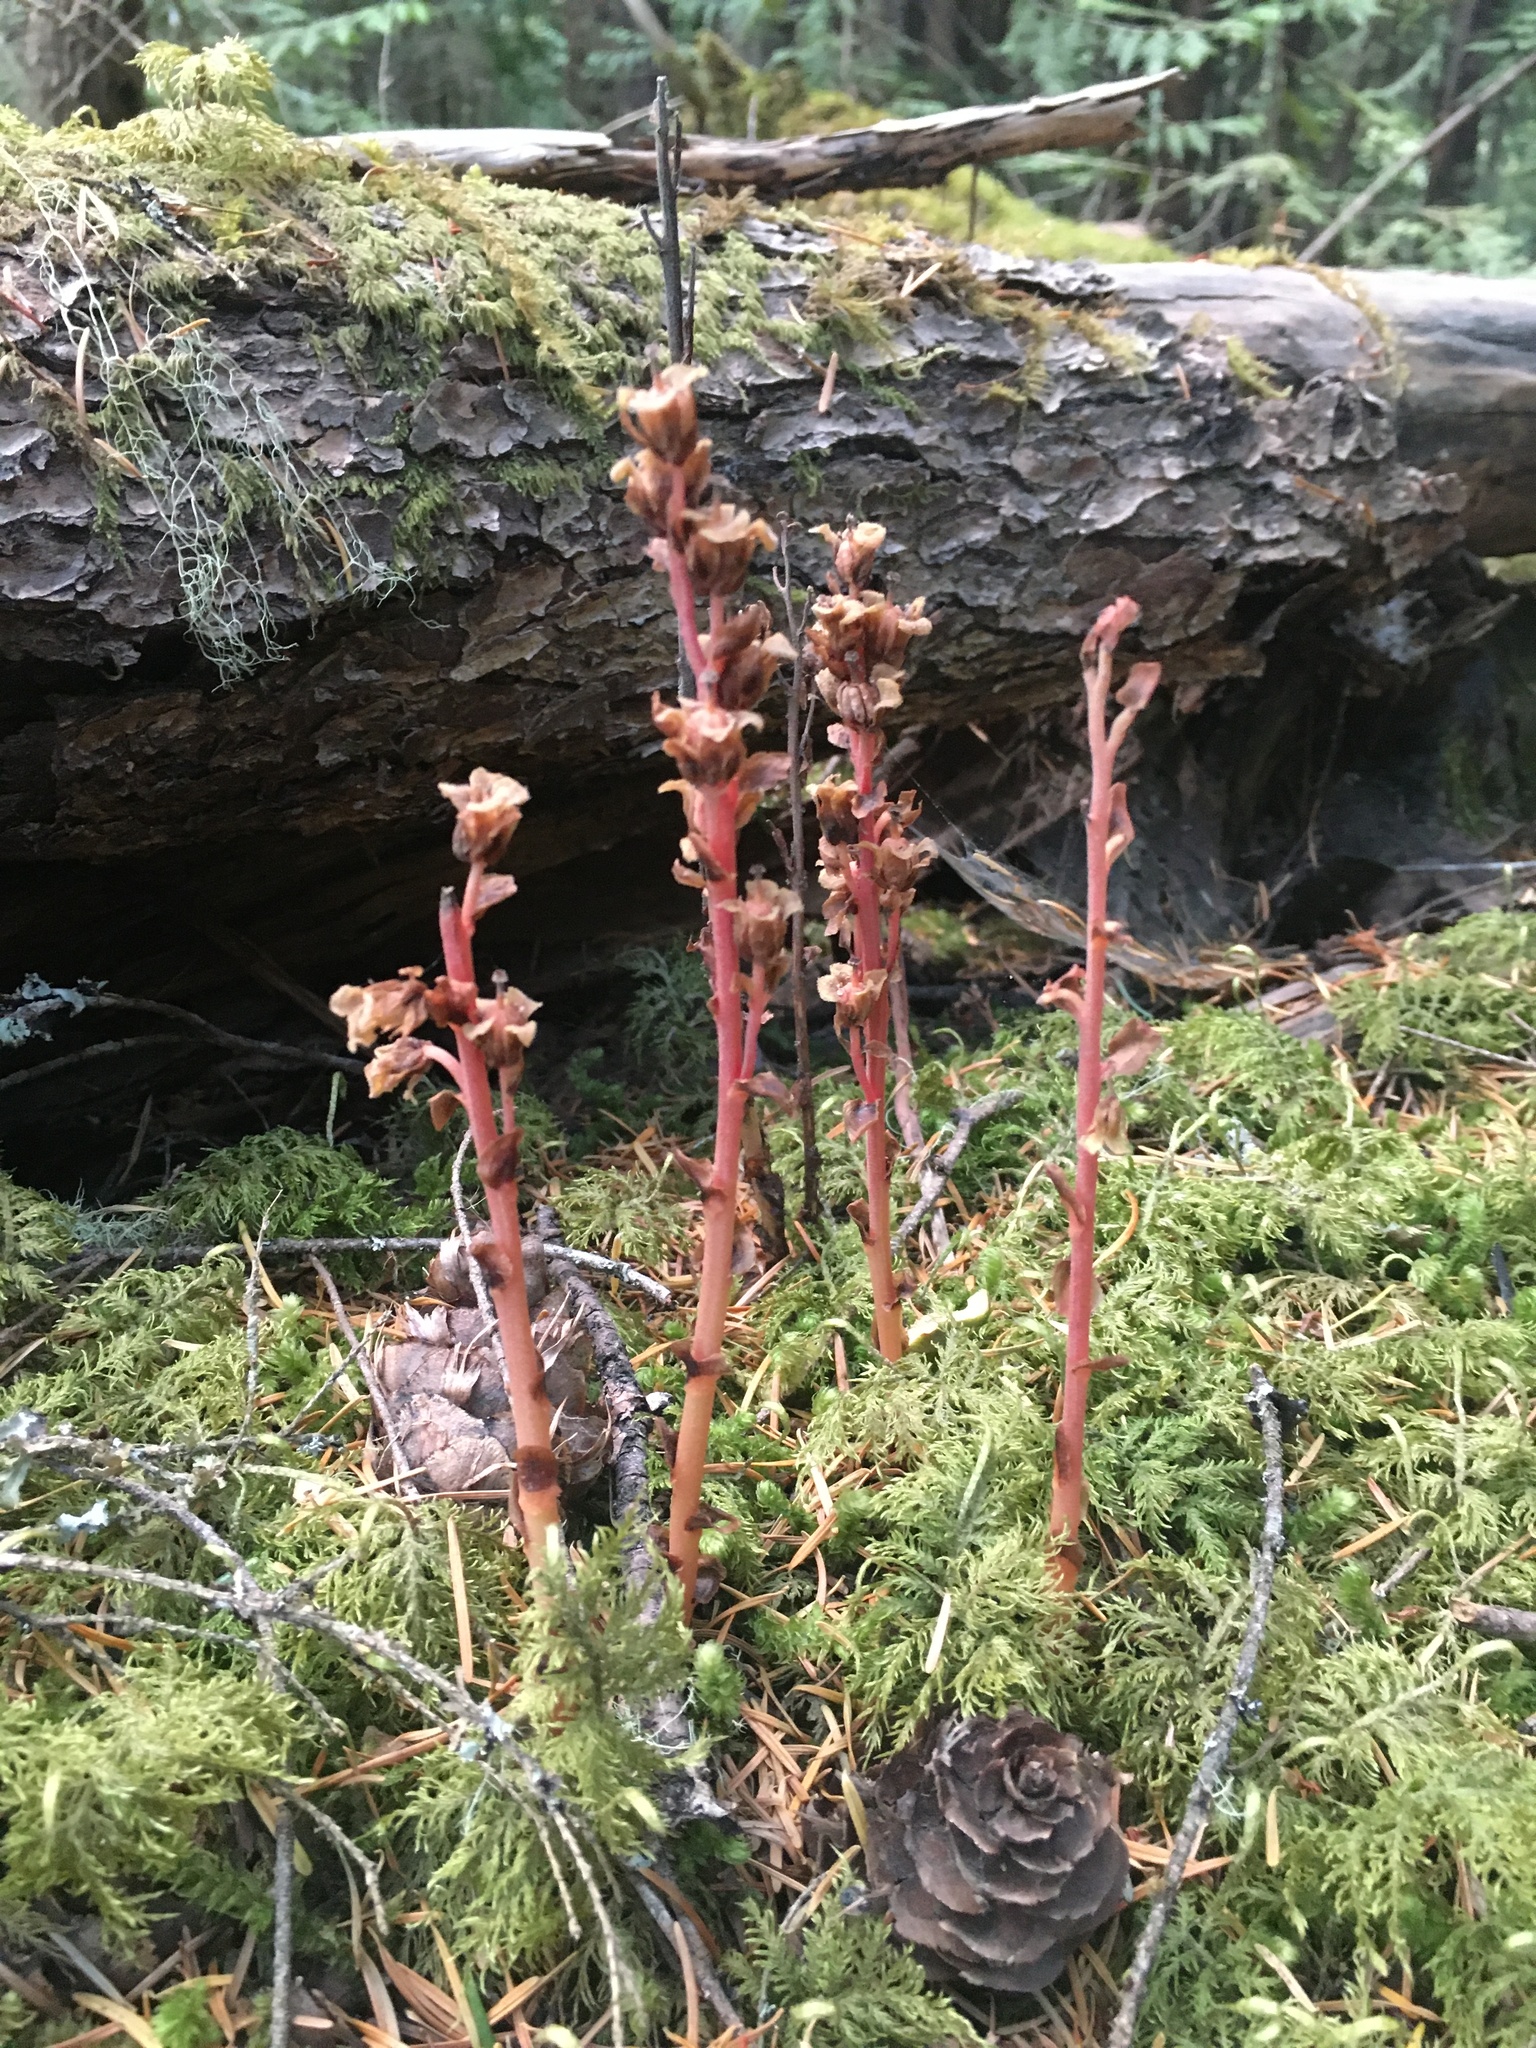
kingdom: Plantae
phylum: Tracheophyta
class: Magnoliopsida
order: Ericales
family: Ericaceae
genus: Hypopitys
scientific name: Hypopitys monotropa
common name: Yellow bird's-nest
